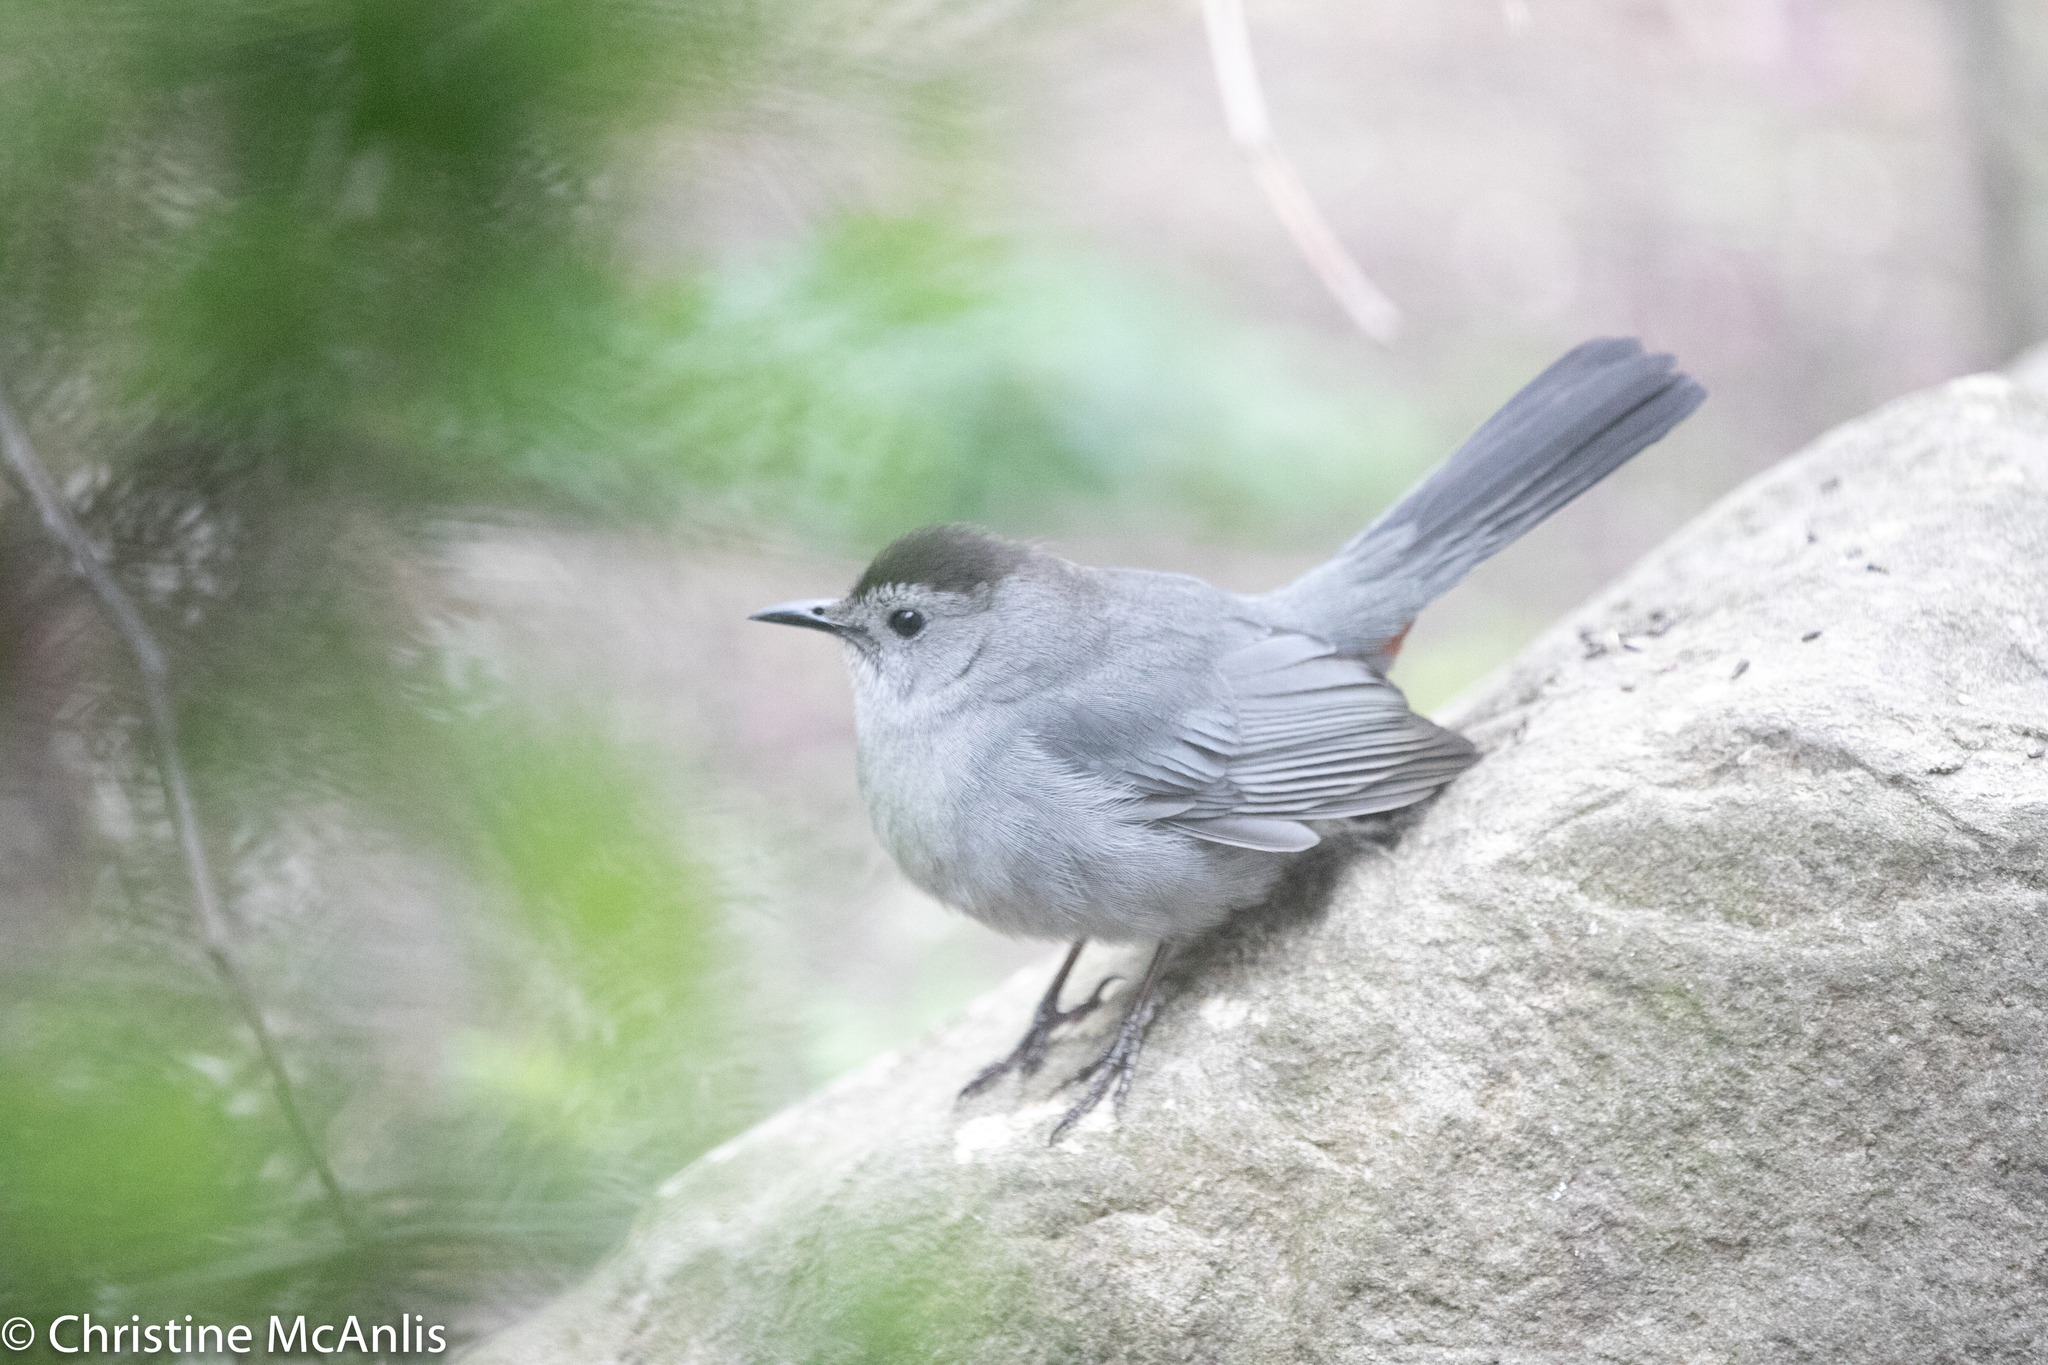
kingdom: Animalia
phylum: Chordata
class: Aves
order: Passeriformes
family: Mimidae
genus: Dumetella
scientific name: Dumetella carolinensis
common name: Gray catbird
